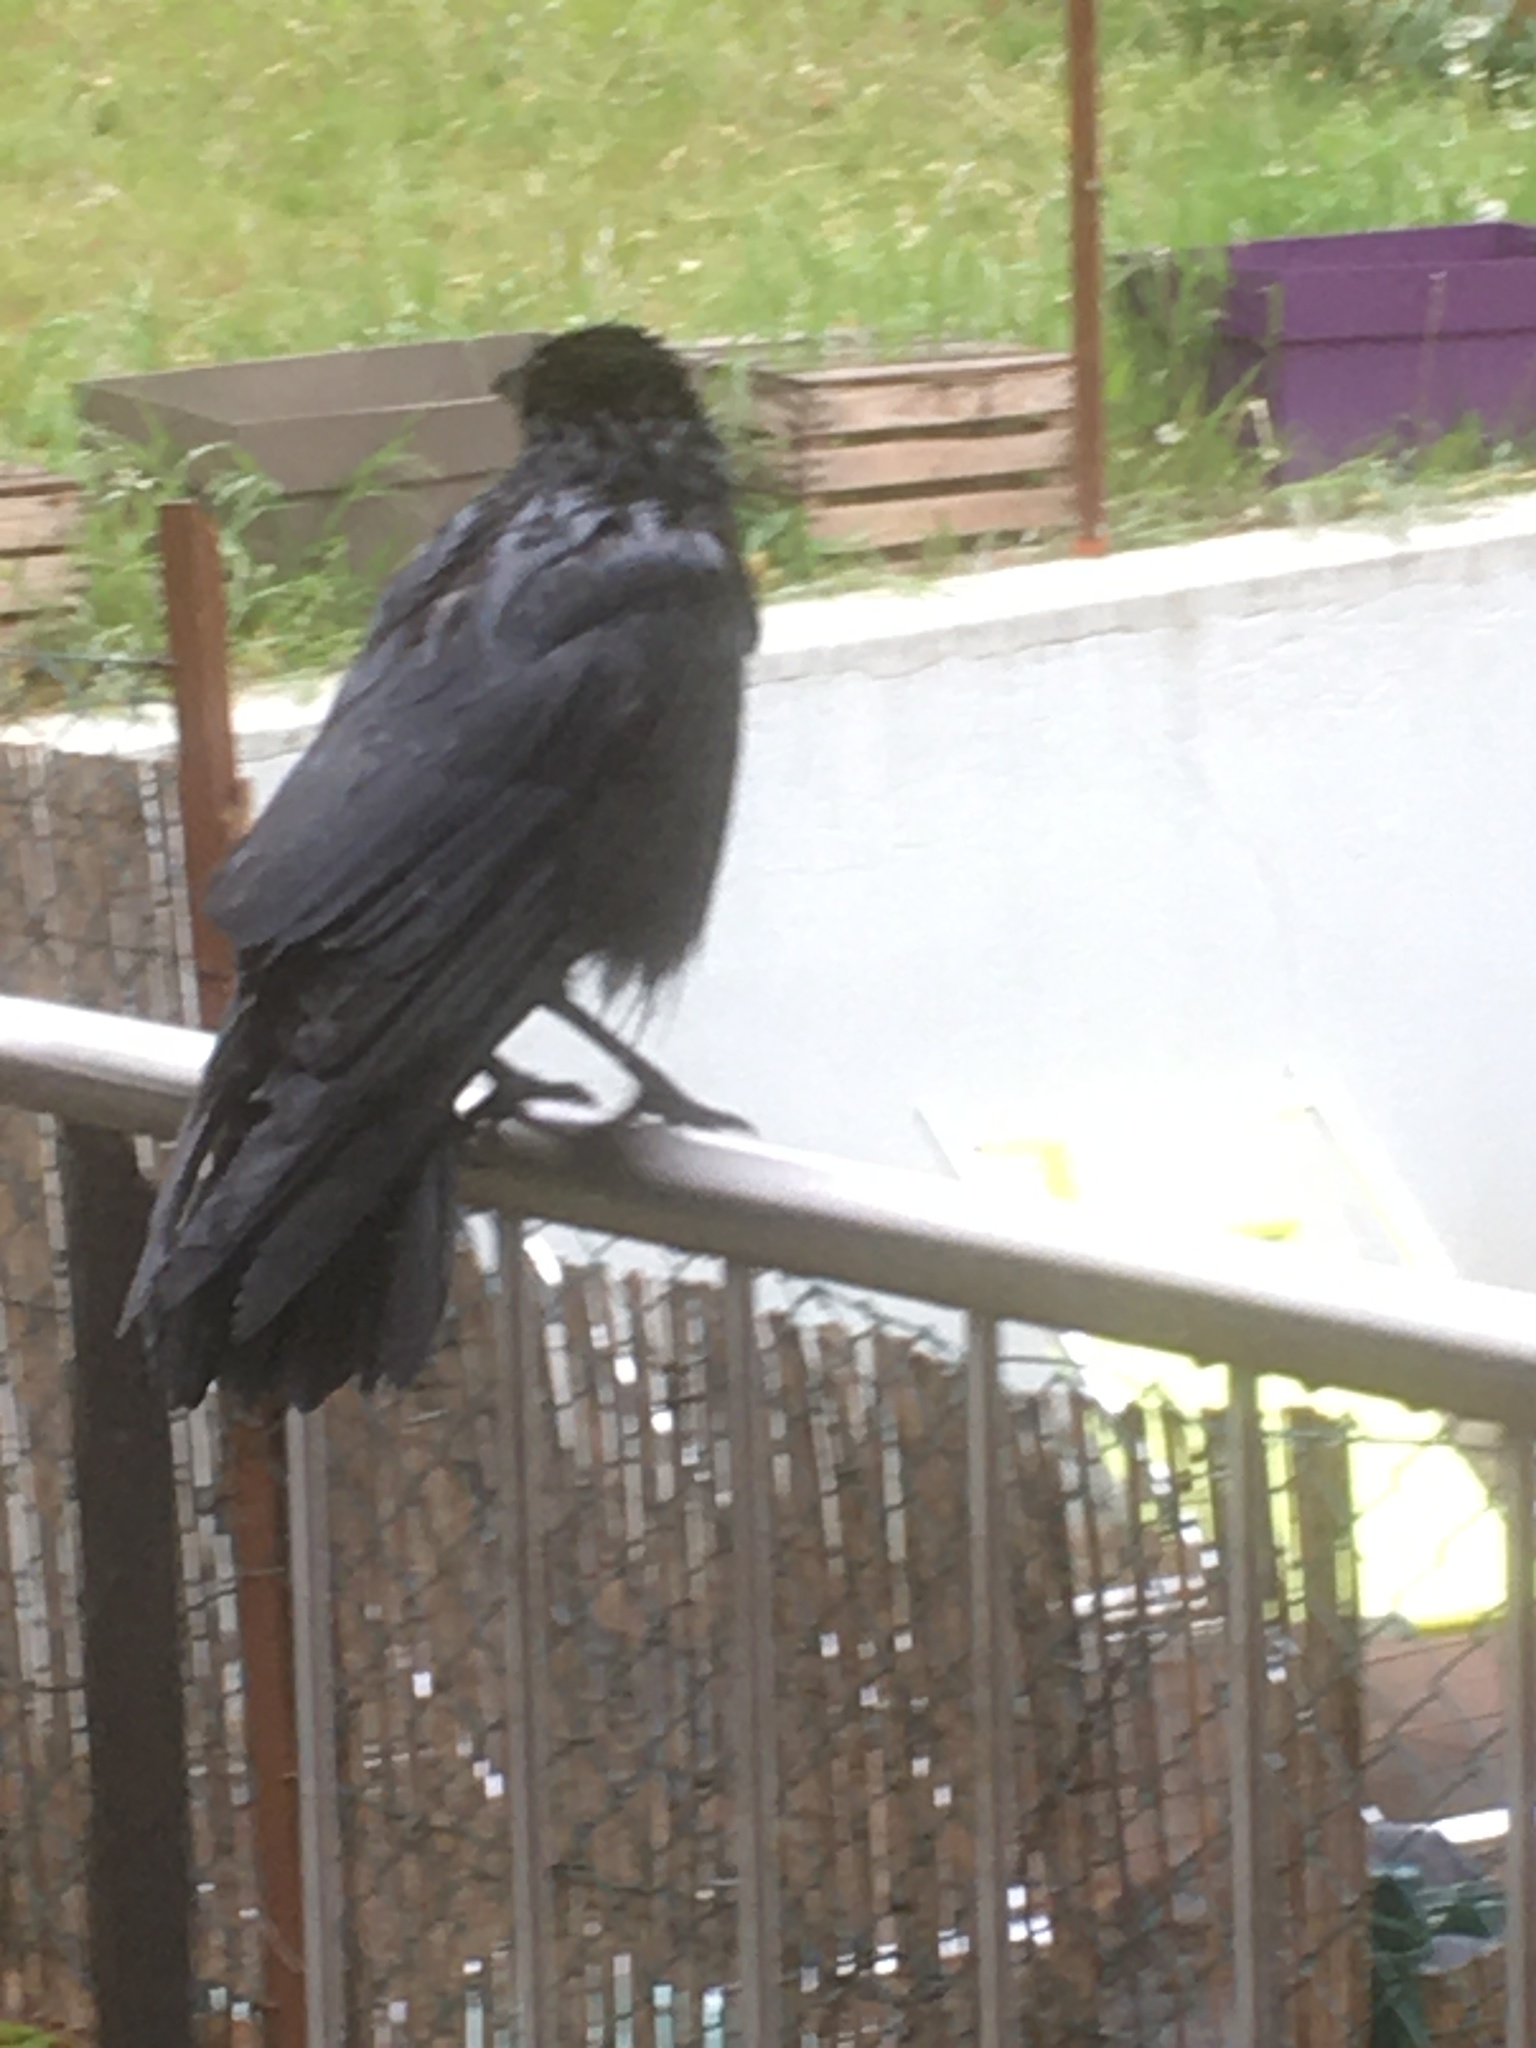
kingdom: Animalia
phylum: Chordata
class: Aves
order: Passeriformes
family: Corvidae
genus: Corvus
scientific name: Corvus corone
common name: Carrion crow
